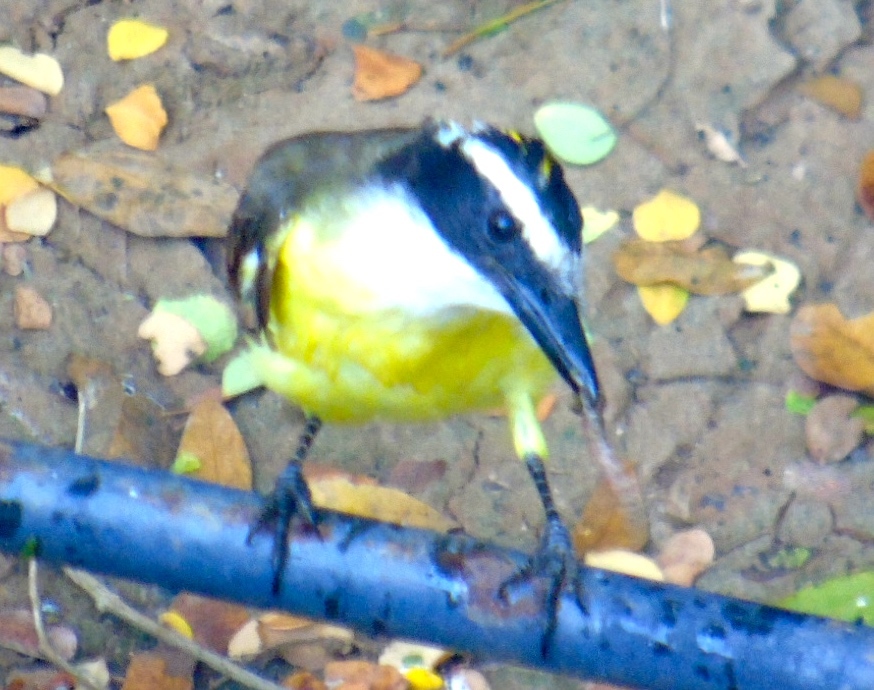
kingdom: Animalia
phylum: Chordata
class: Aves
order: Passeriformes
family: Tyrannidae
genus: Pitangus
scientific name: Pitangus sulphuratus
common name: Great kiskadee
